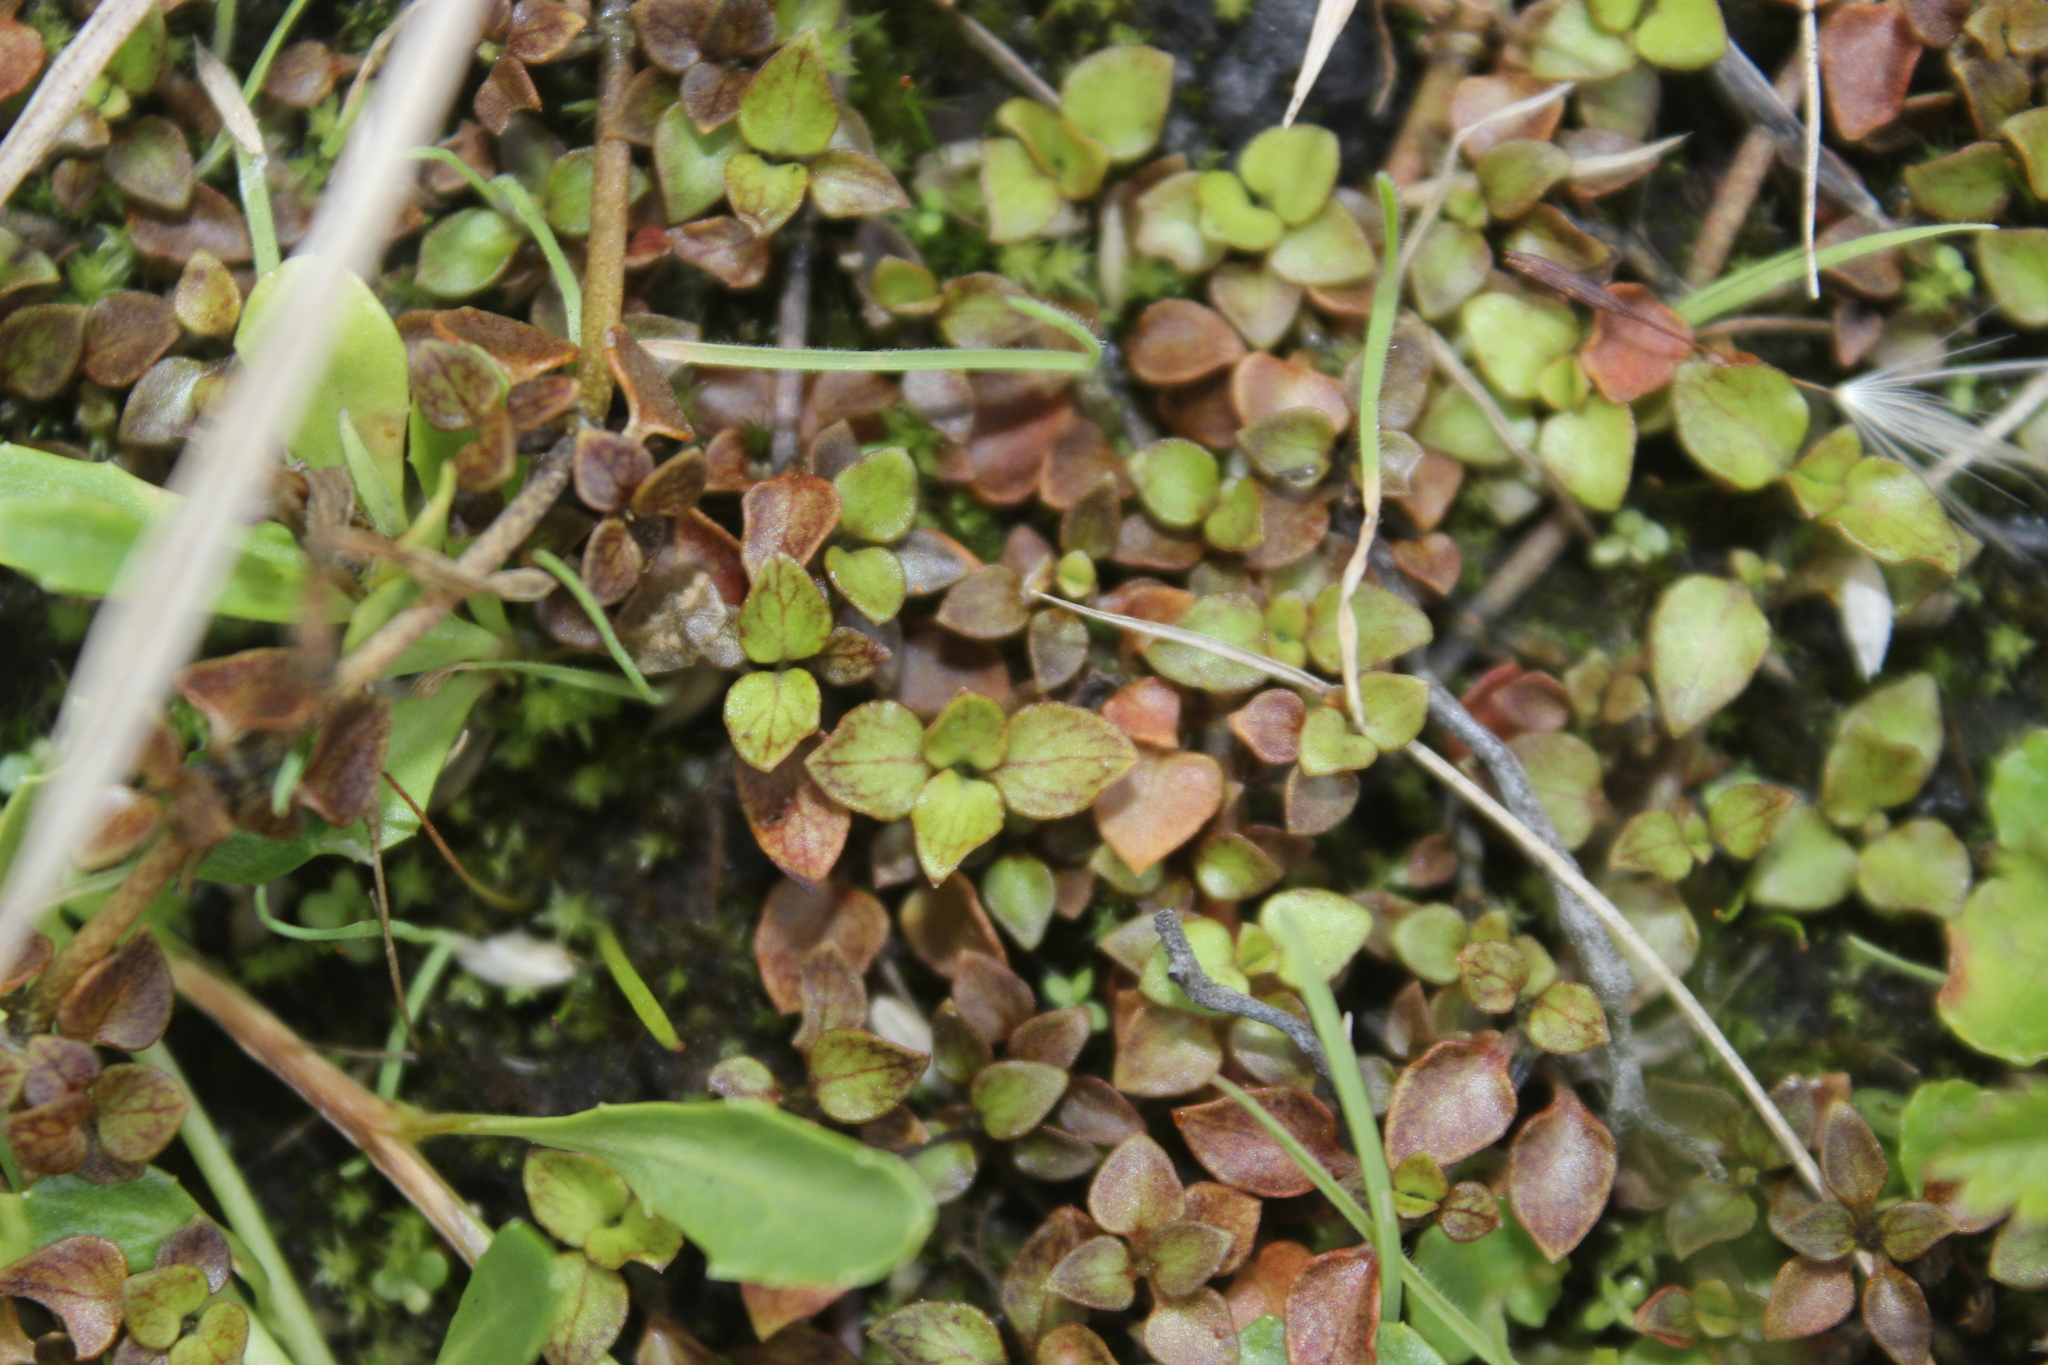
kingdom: Plantae
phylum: Tracheophyta
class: Magnoliopsida
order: Gentianales
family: Rubiaceae
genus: Nertera
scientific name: Nertera granadensis
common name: Beadplant
